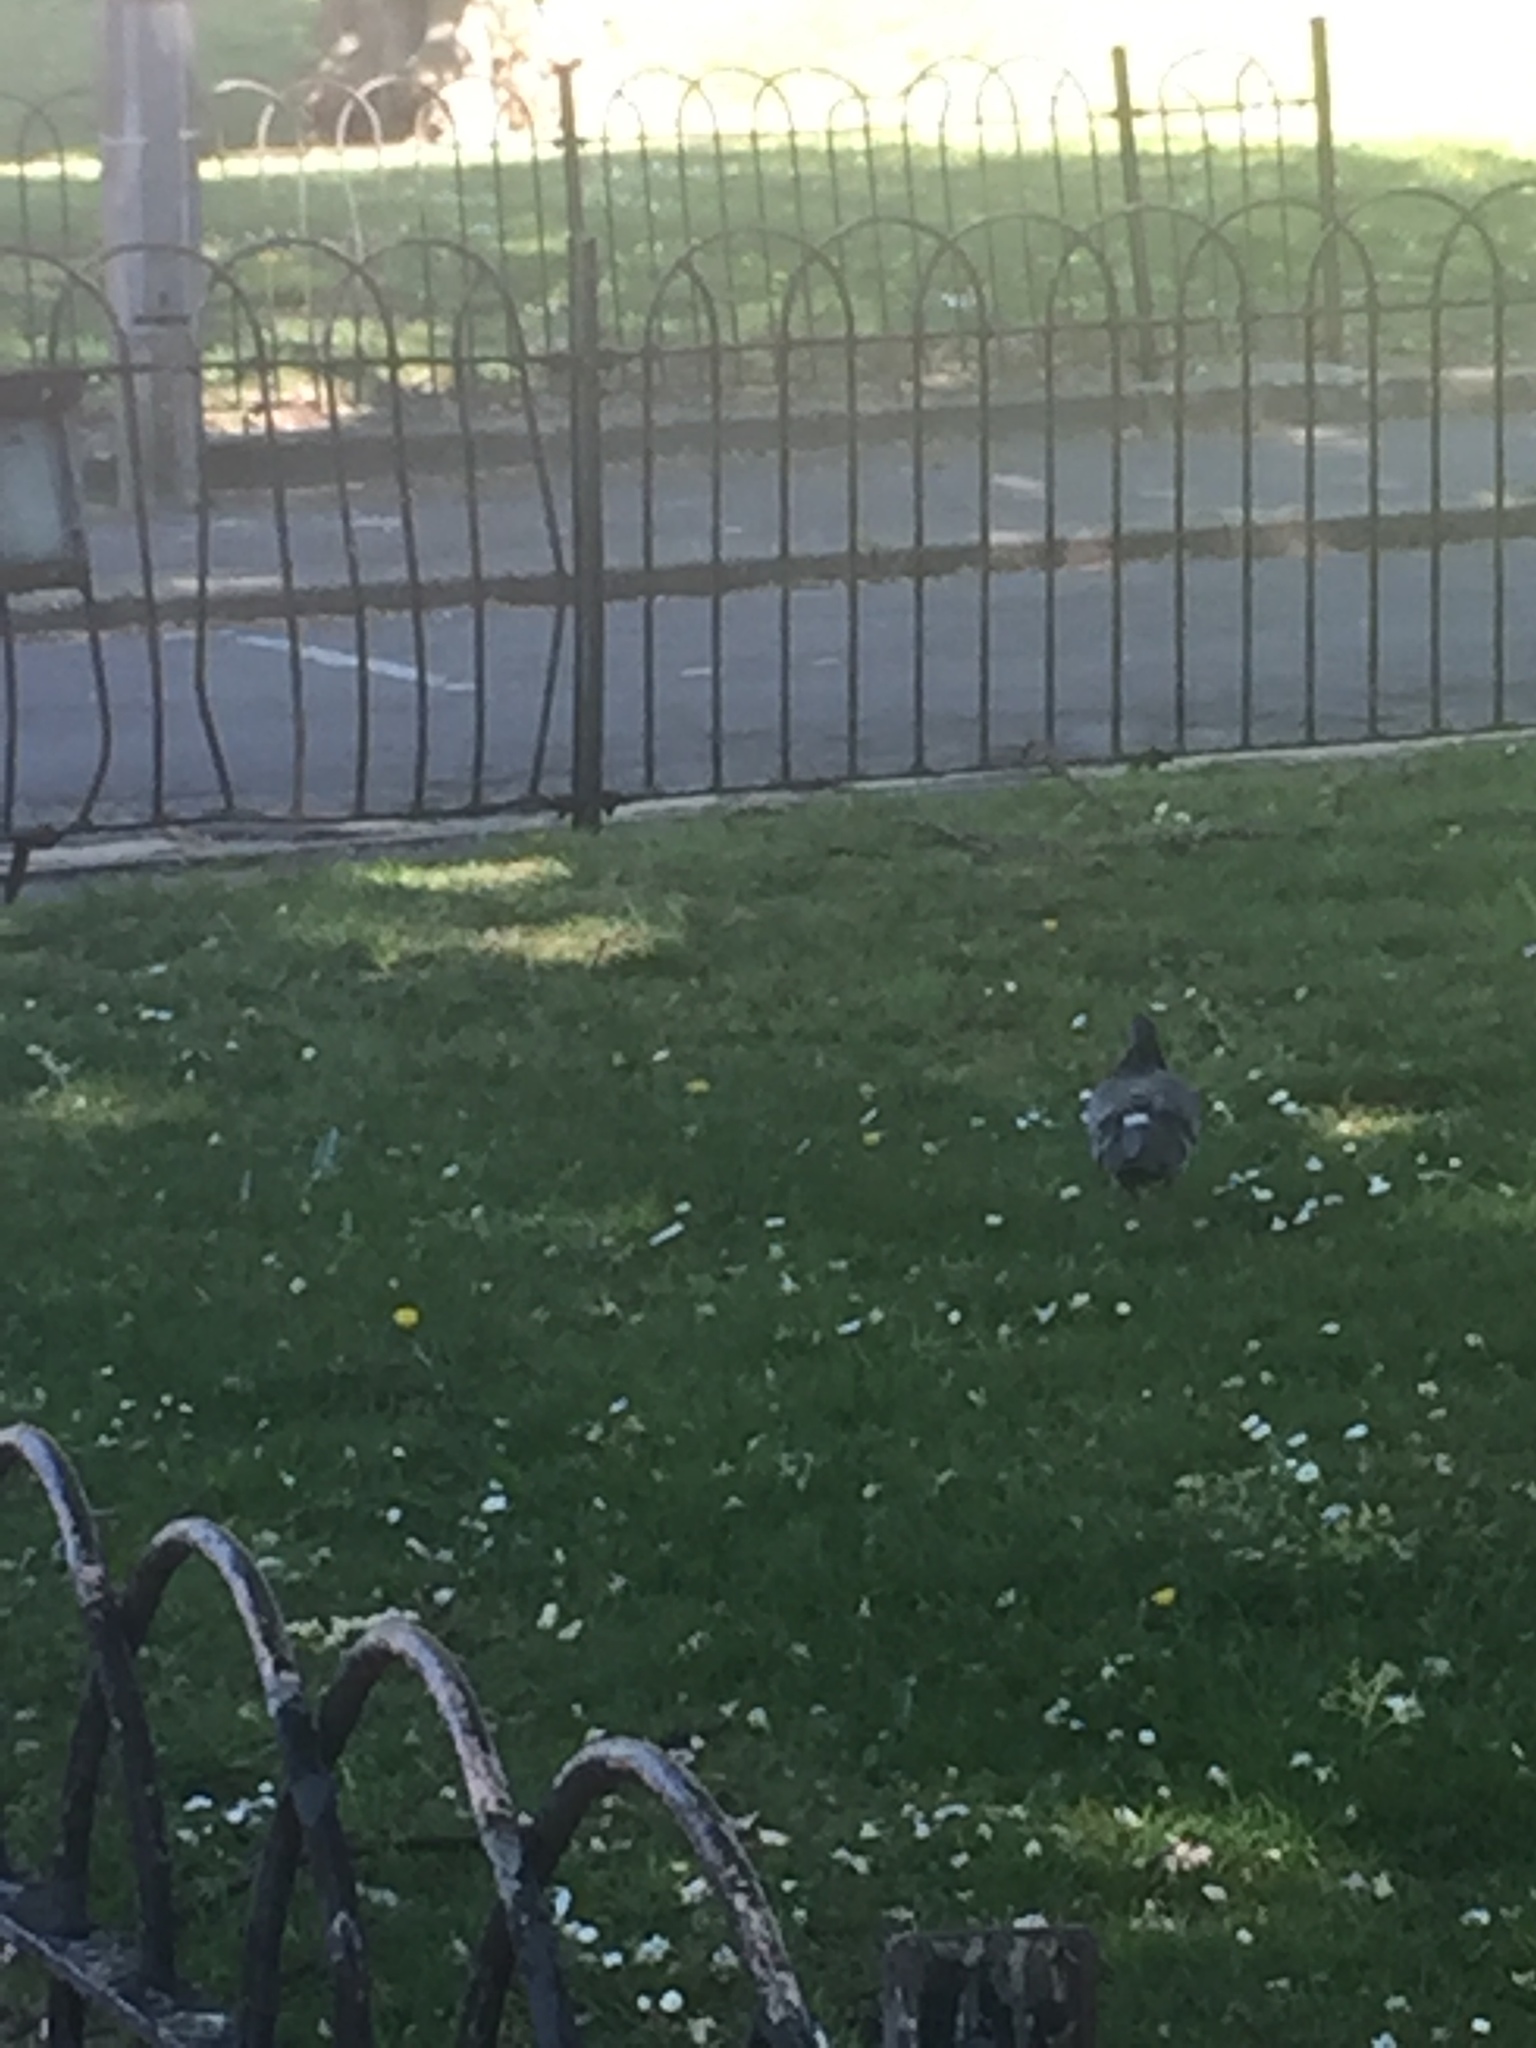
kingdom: Animalia
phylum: Chordata
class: Aves
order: Columbiformes
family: Columbidae
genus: Columba
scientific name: Columba livia
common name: Rock pigeon
